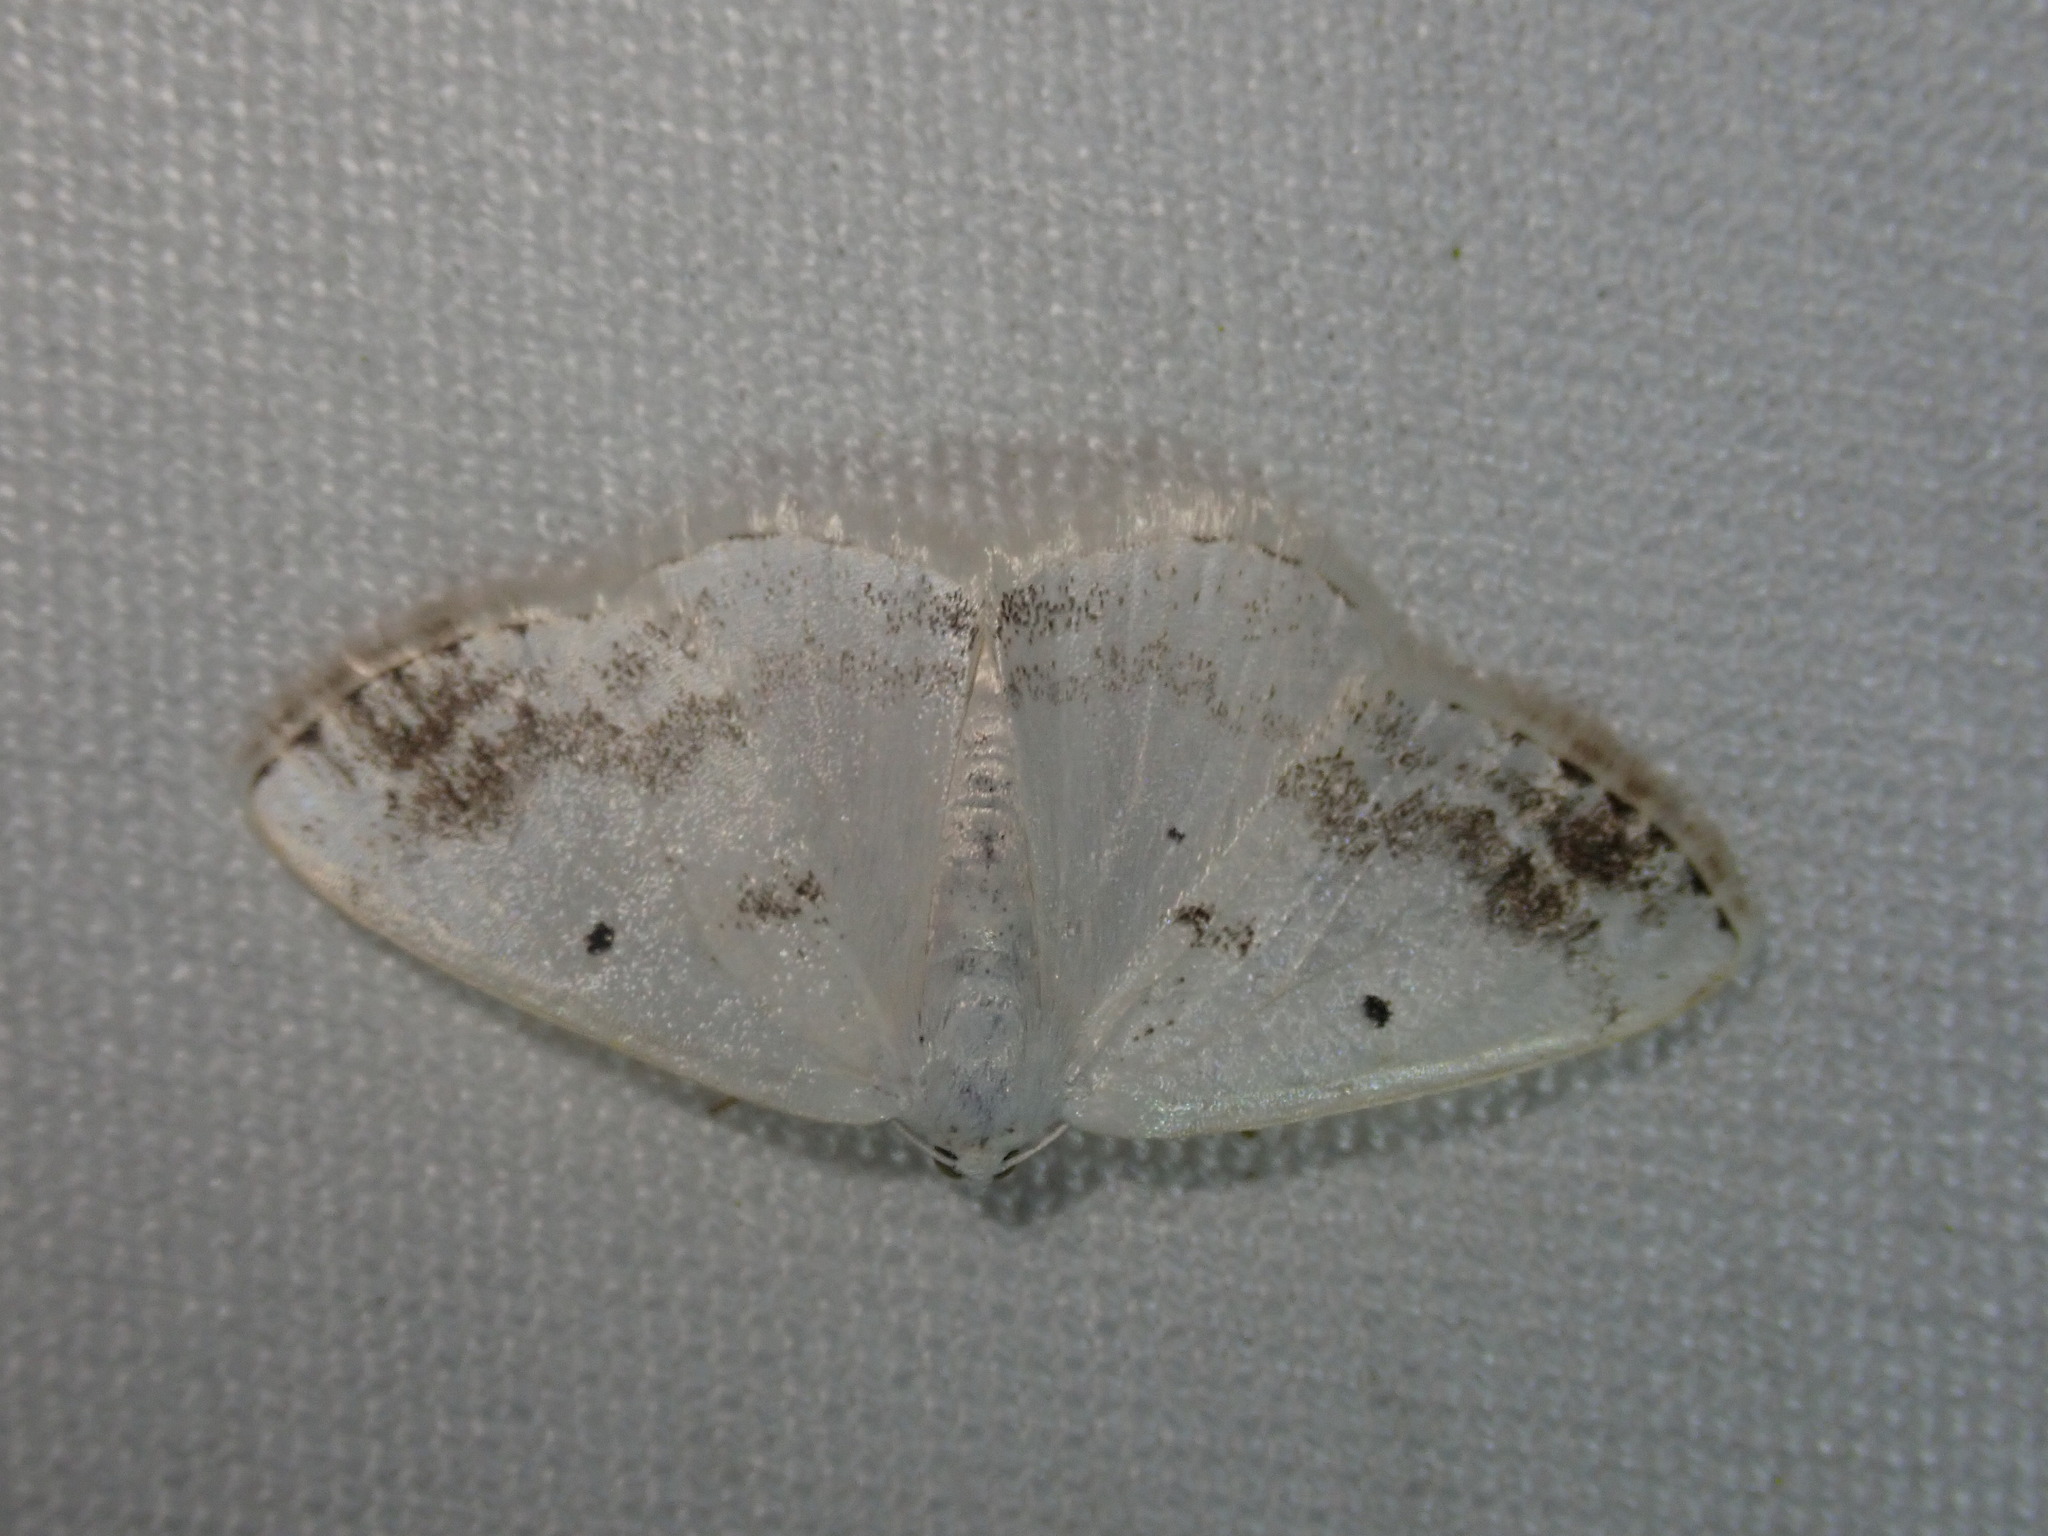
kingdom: Animalia
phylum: Arthropoda
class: Insecta
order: Lepidoptera
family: Geometridae
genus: Lomographa
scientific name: Lomographa temerata
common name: Clouded silver
